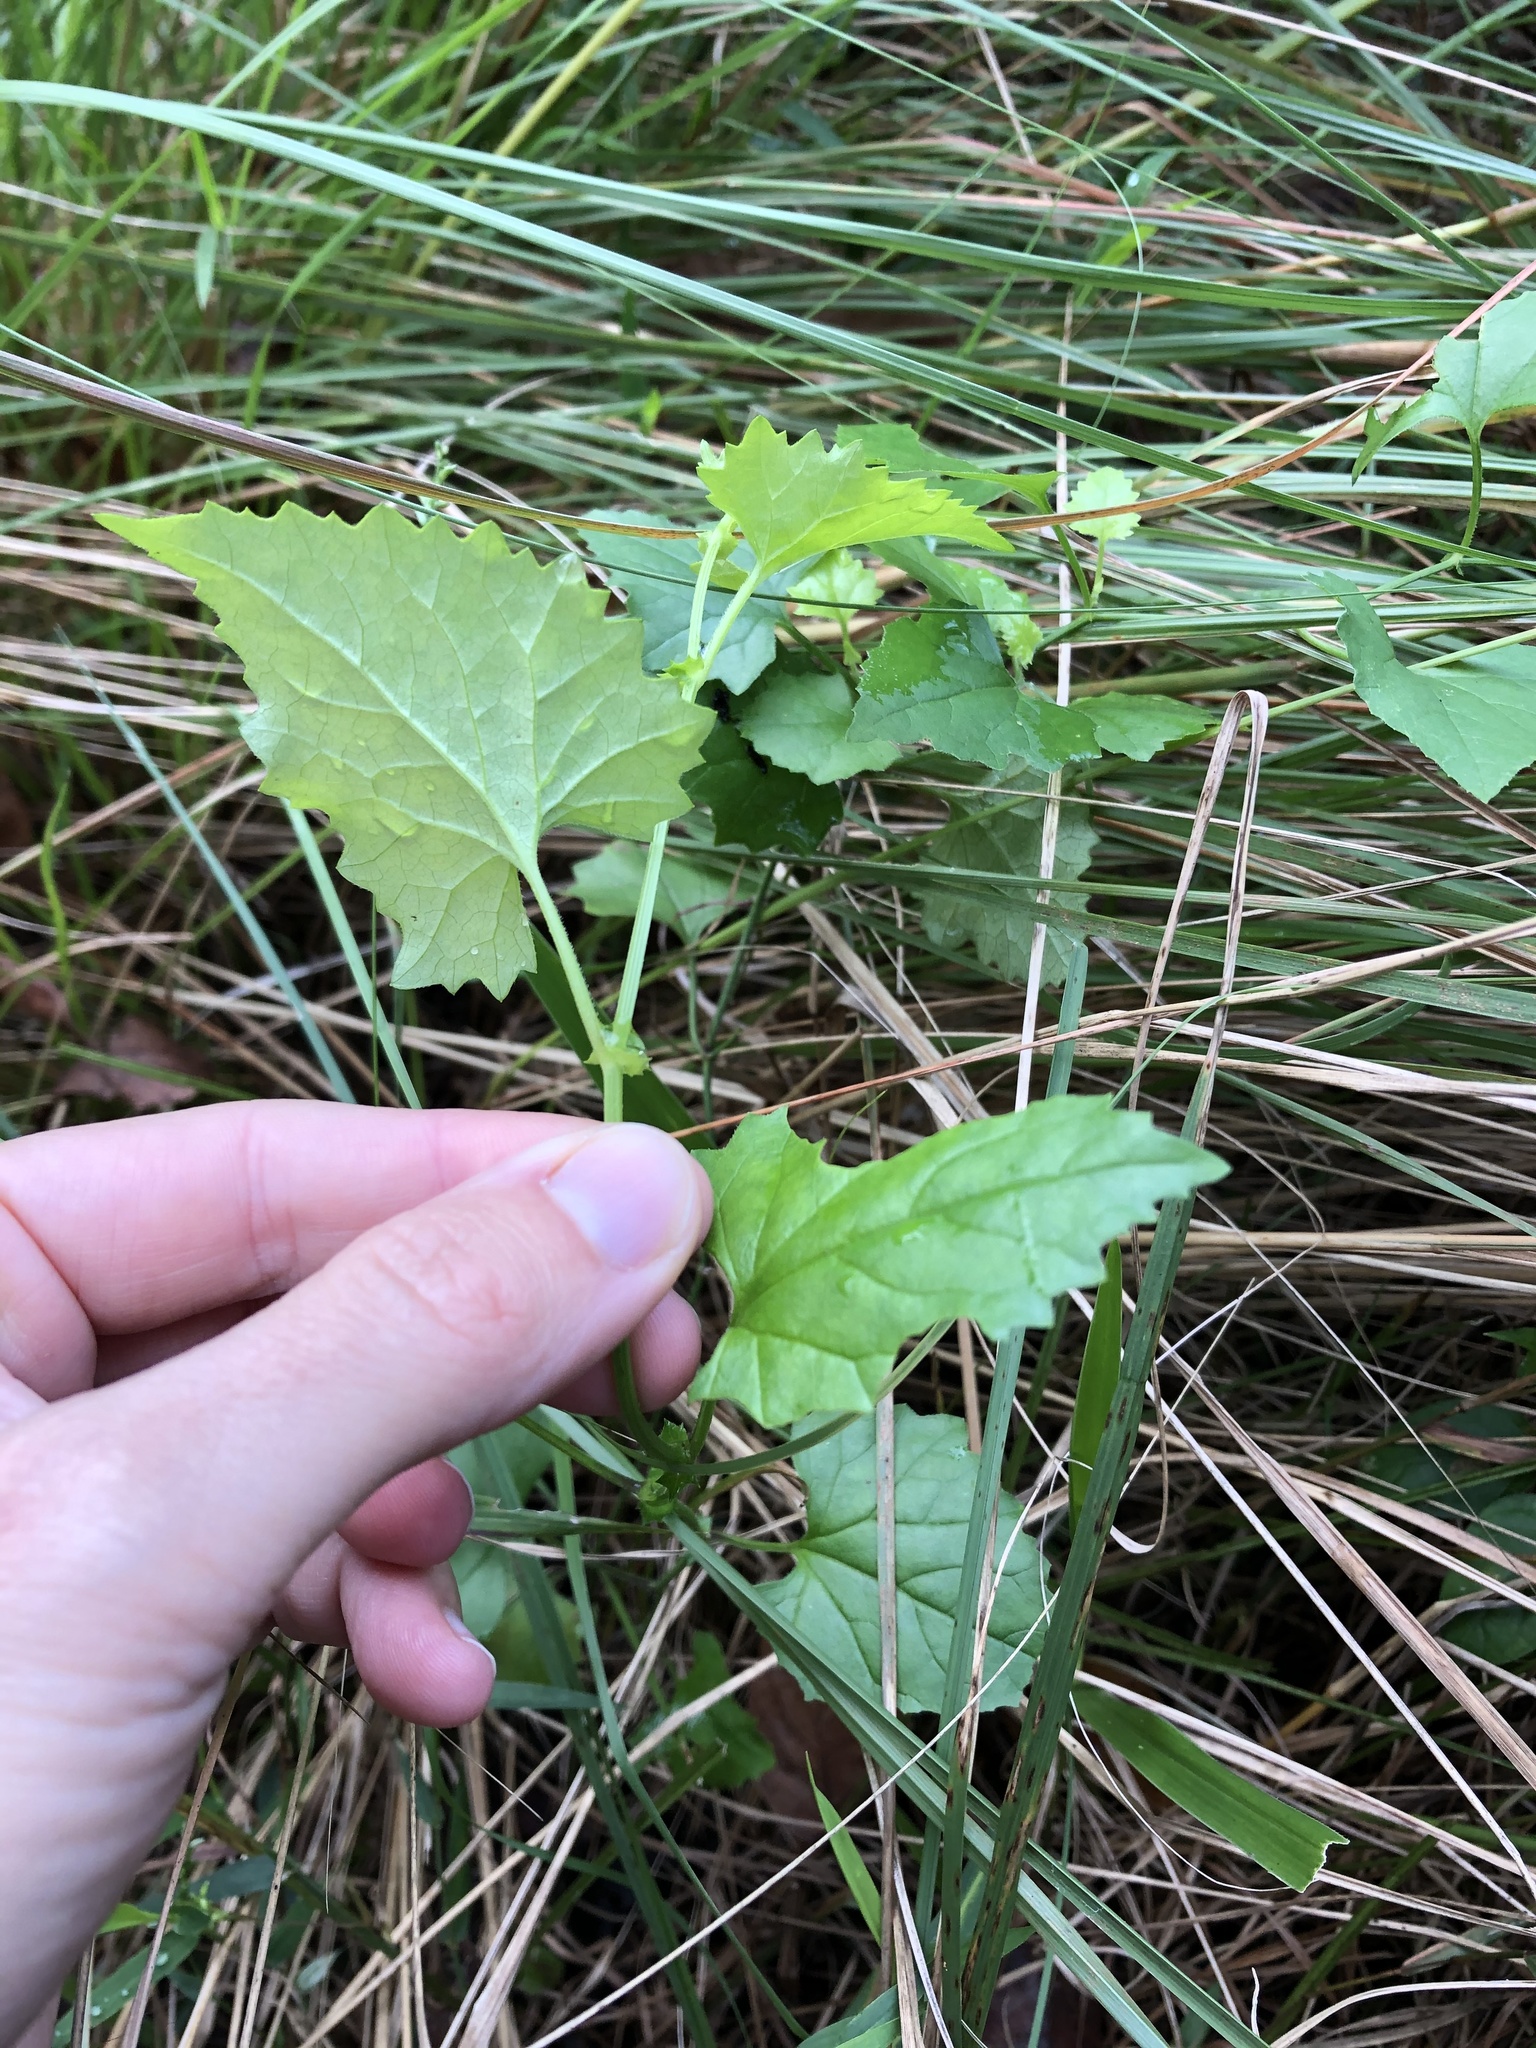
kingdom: Plantae
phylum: Tracheophyta
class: Magnoliopsida
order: Asterales
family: Asteraceae
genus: Senecio
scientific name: Senecio deltoideus
